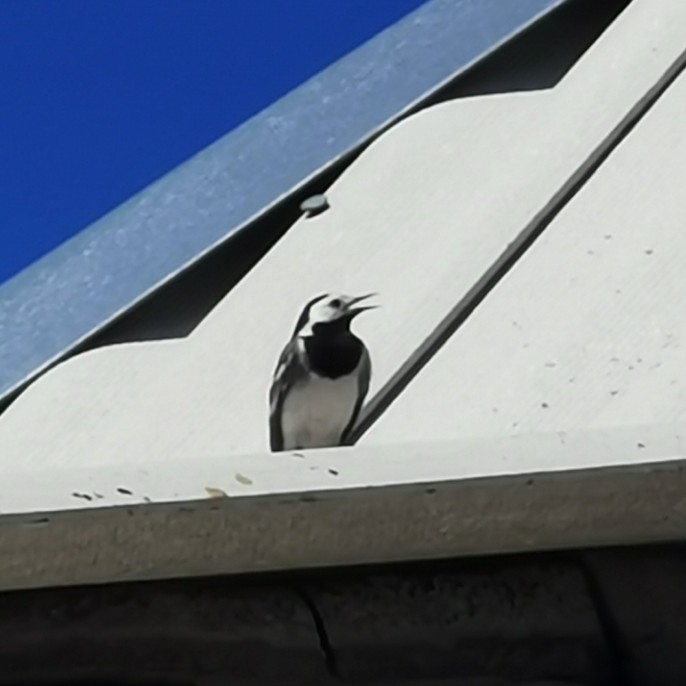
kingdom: Animalia
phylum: Chordata
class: Aves
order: Passeriformes
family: Motacillidae
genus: Motacilla
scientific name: Motacilla alba
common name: White wagtail
